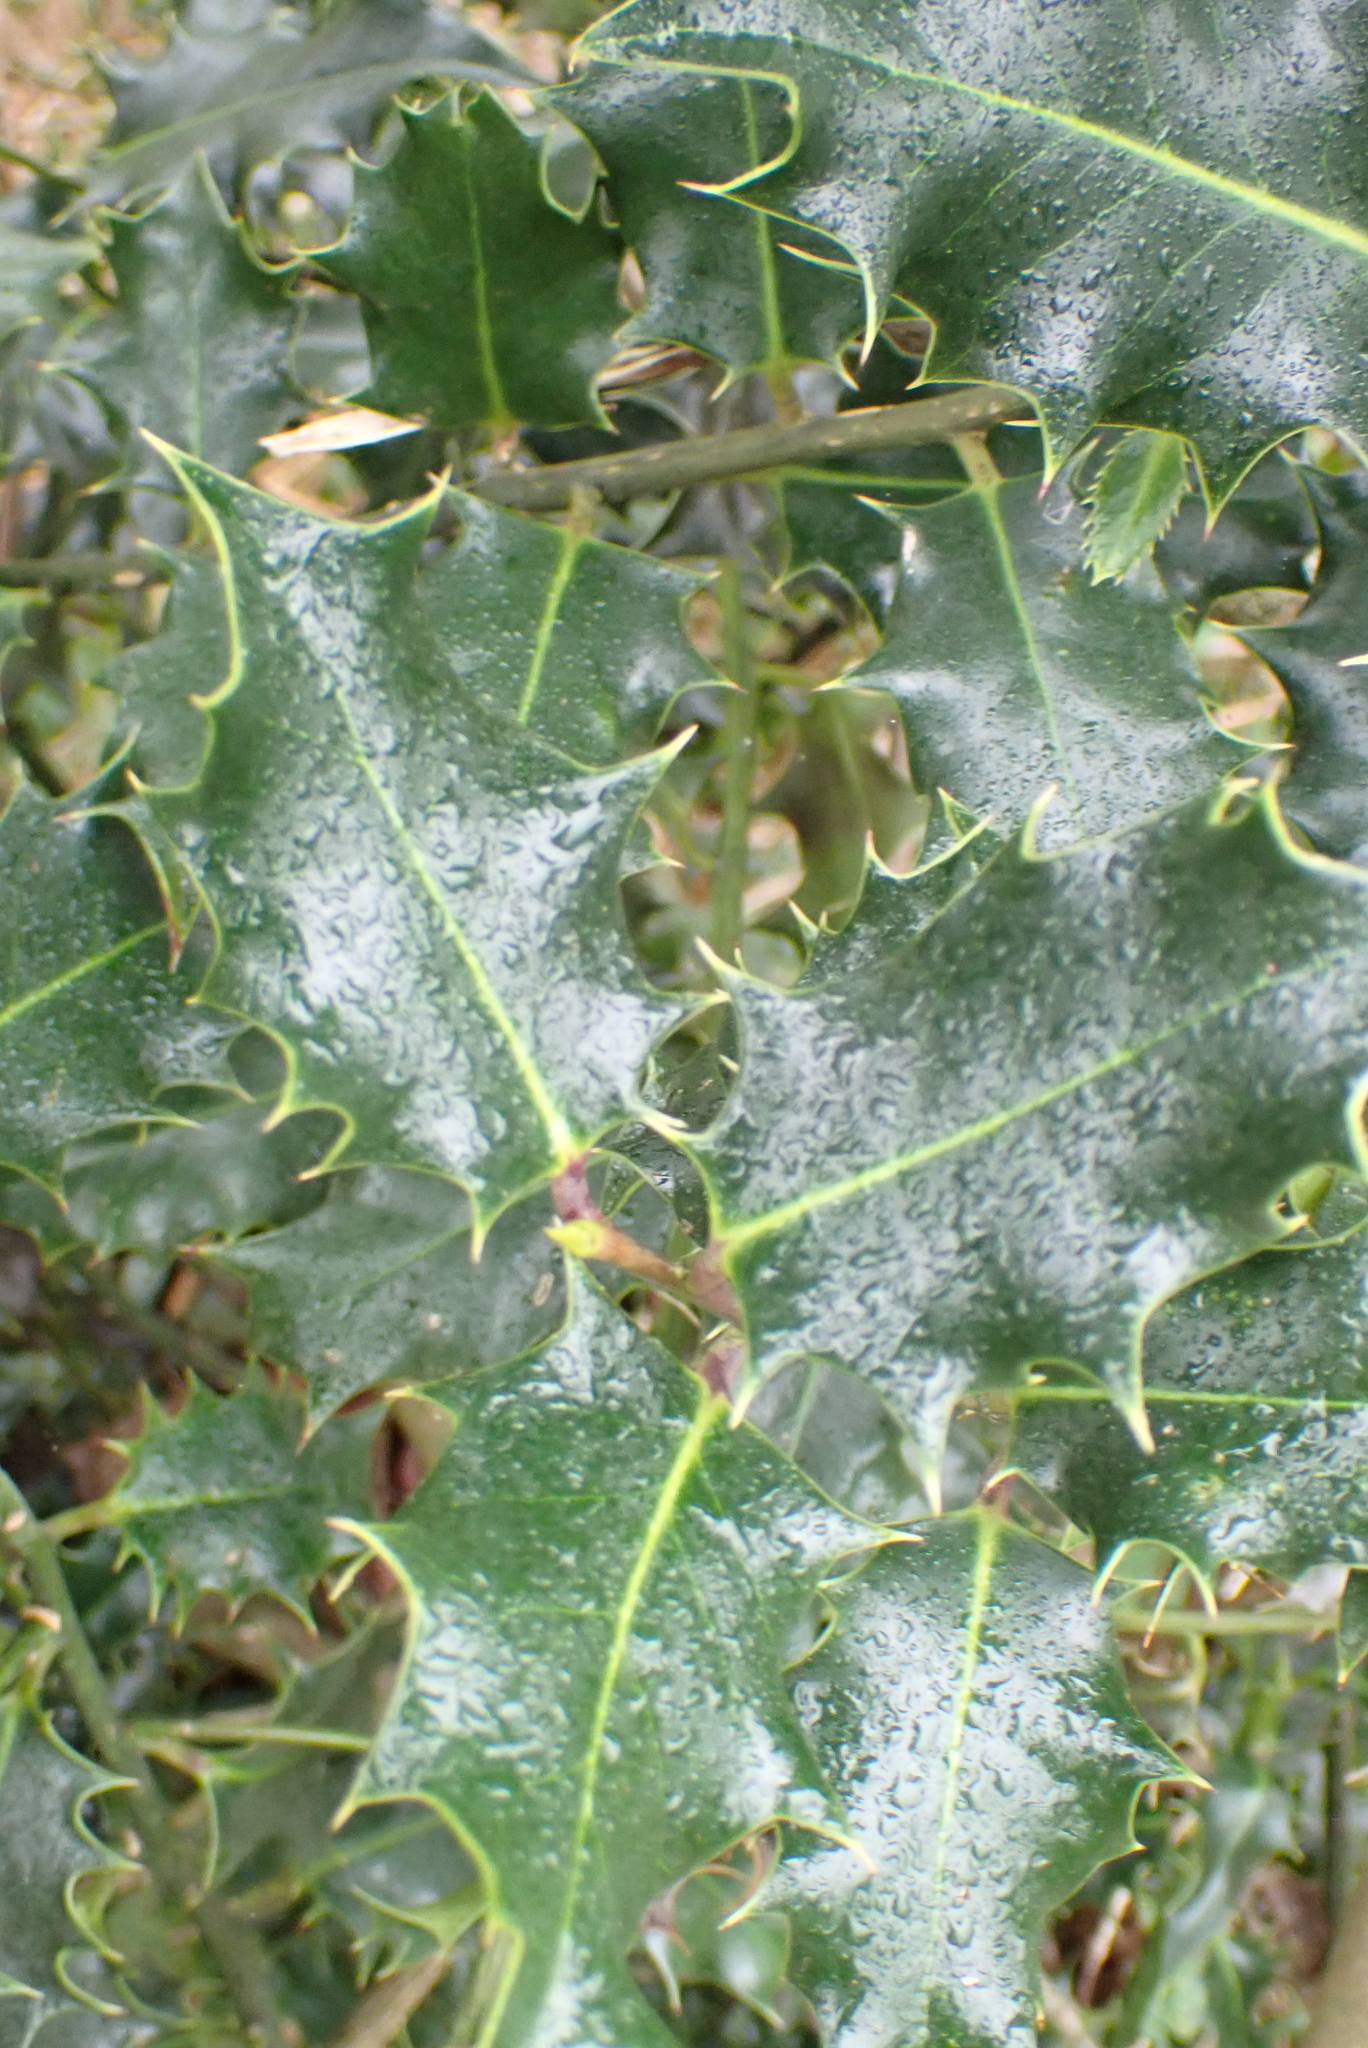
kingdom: Plantae
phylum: Tracheophyta
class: Magnoliopsida
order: Aquifoliales
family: Aquifoliaceae
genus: Ilex
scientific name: Ilex aquifolium
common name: English holly
